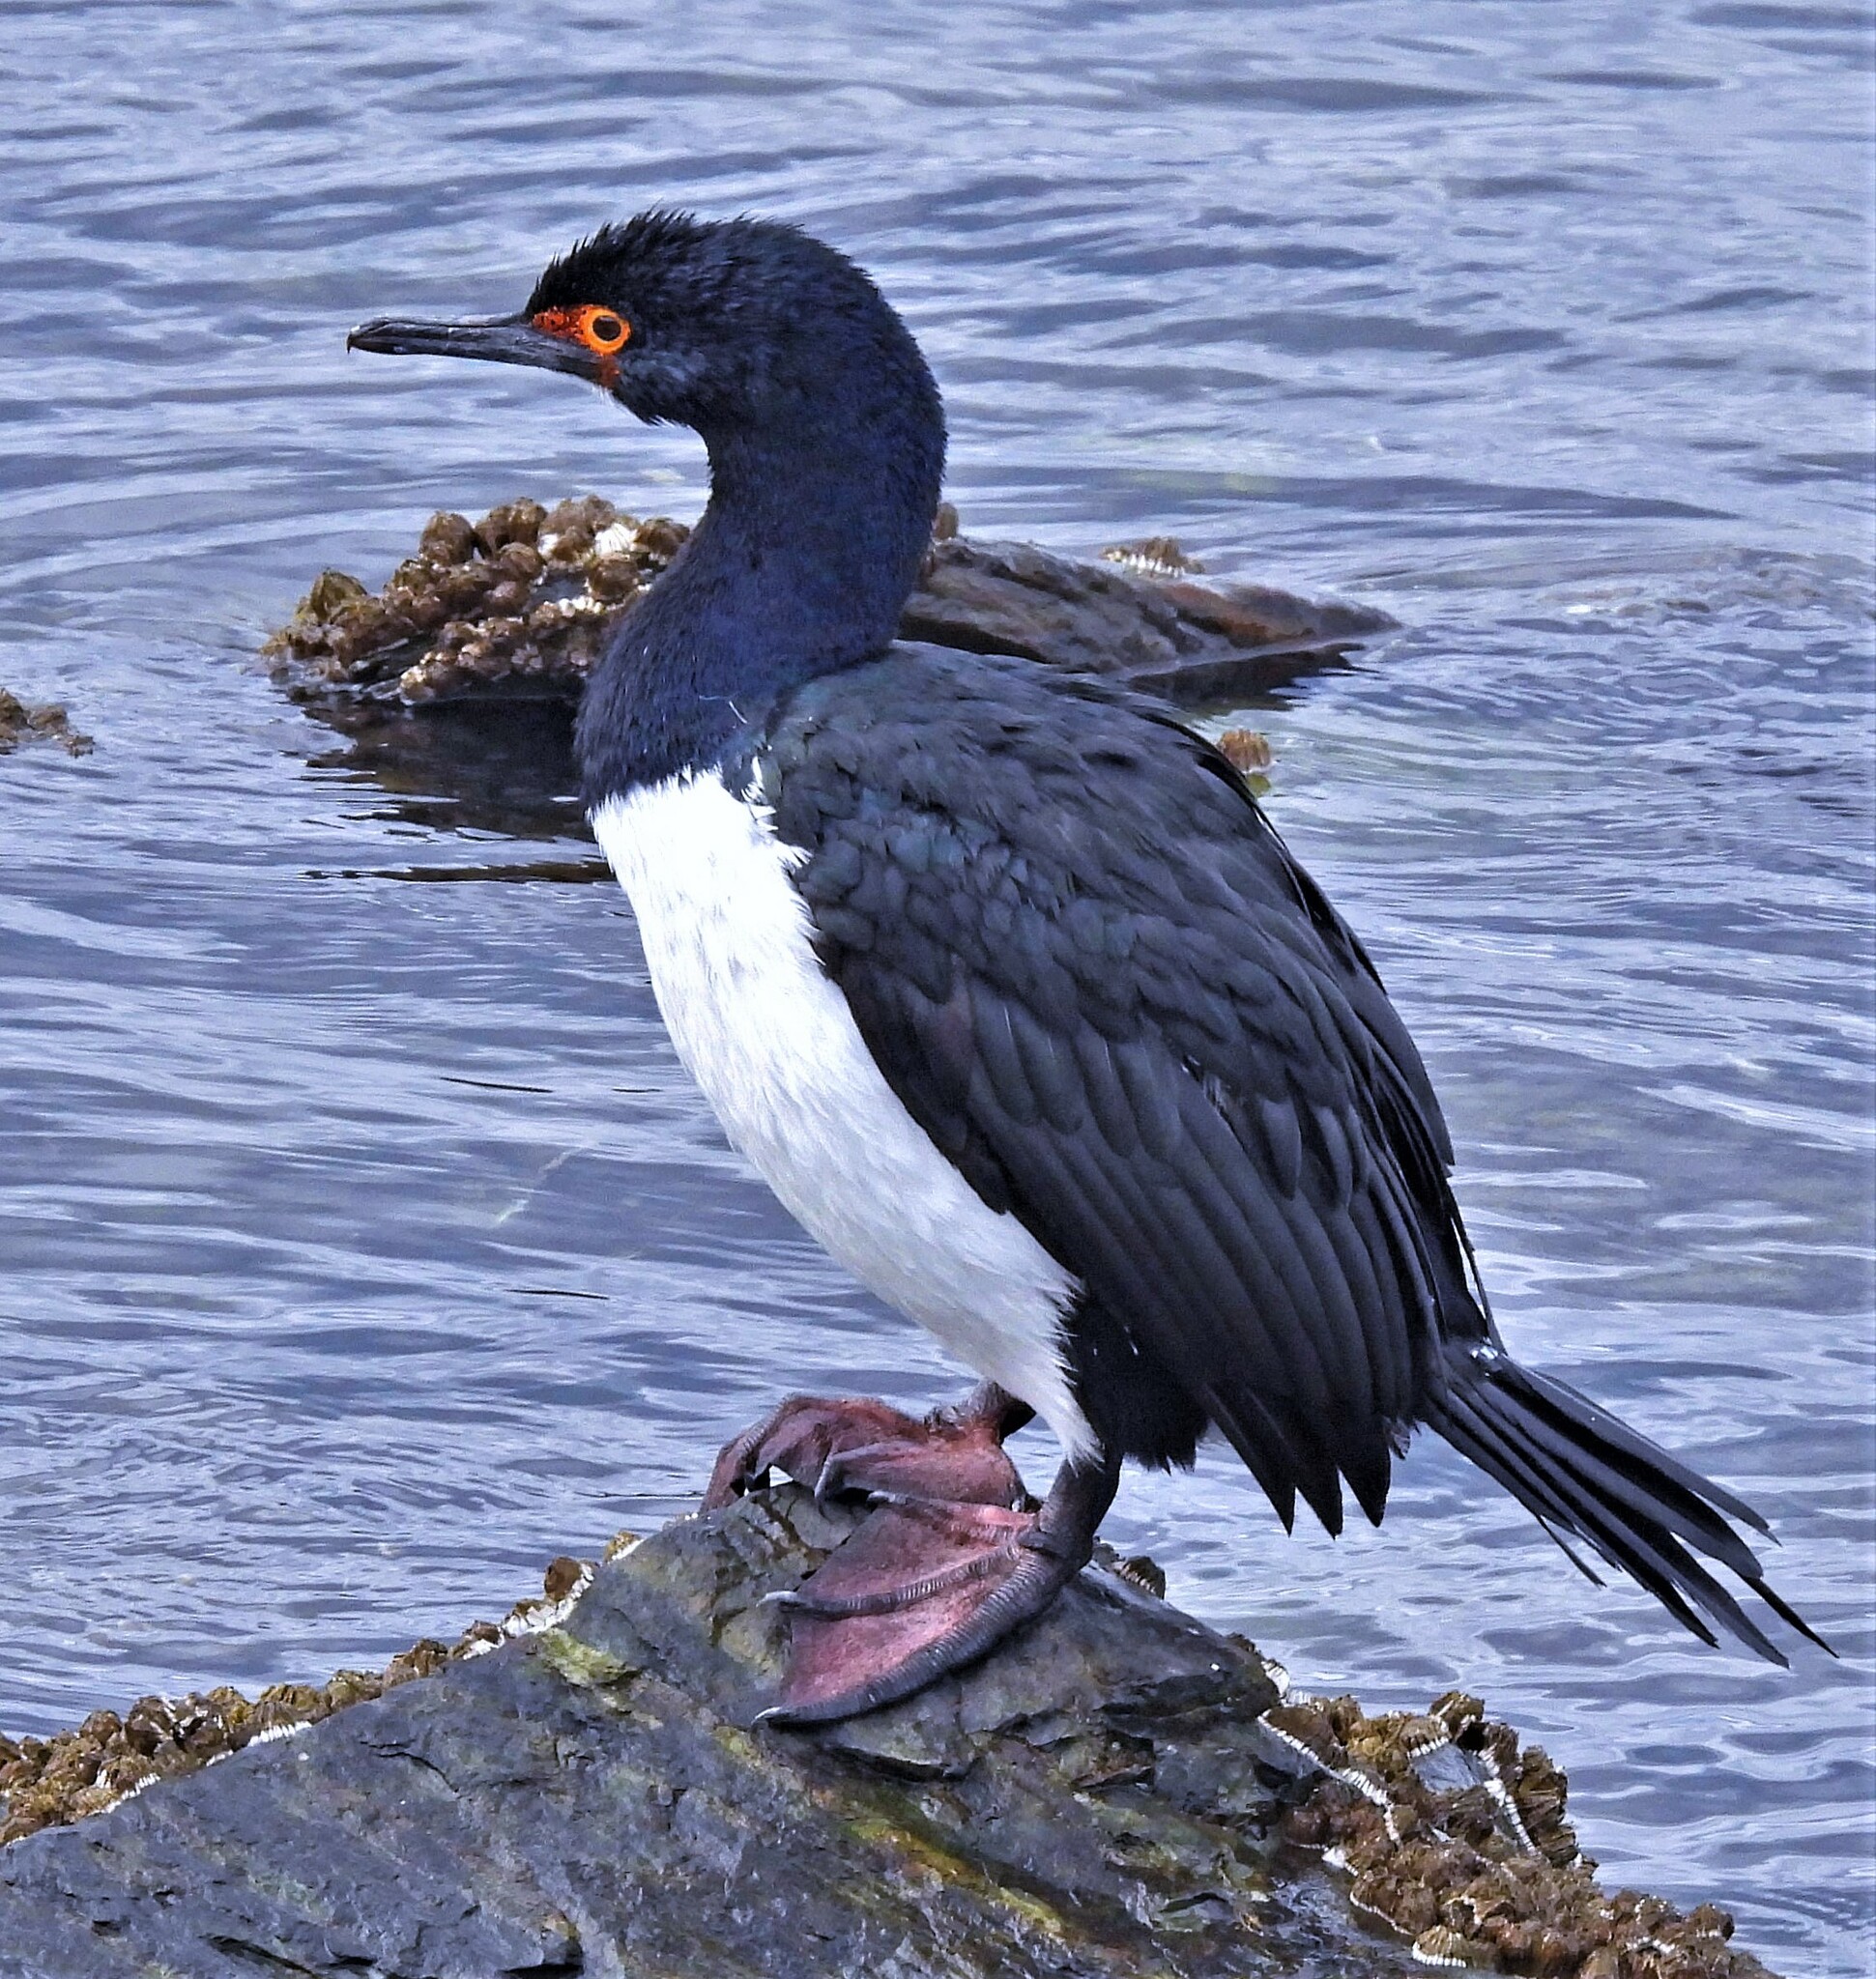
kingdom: Animalia
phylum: Chordata
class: Aves
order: Suliformes
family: Phalacrocoracidae
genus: Phalacrocorax
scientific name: Phalacrocorax magellanicus
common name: Rock shag
